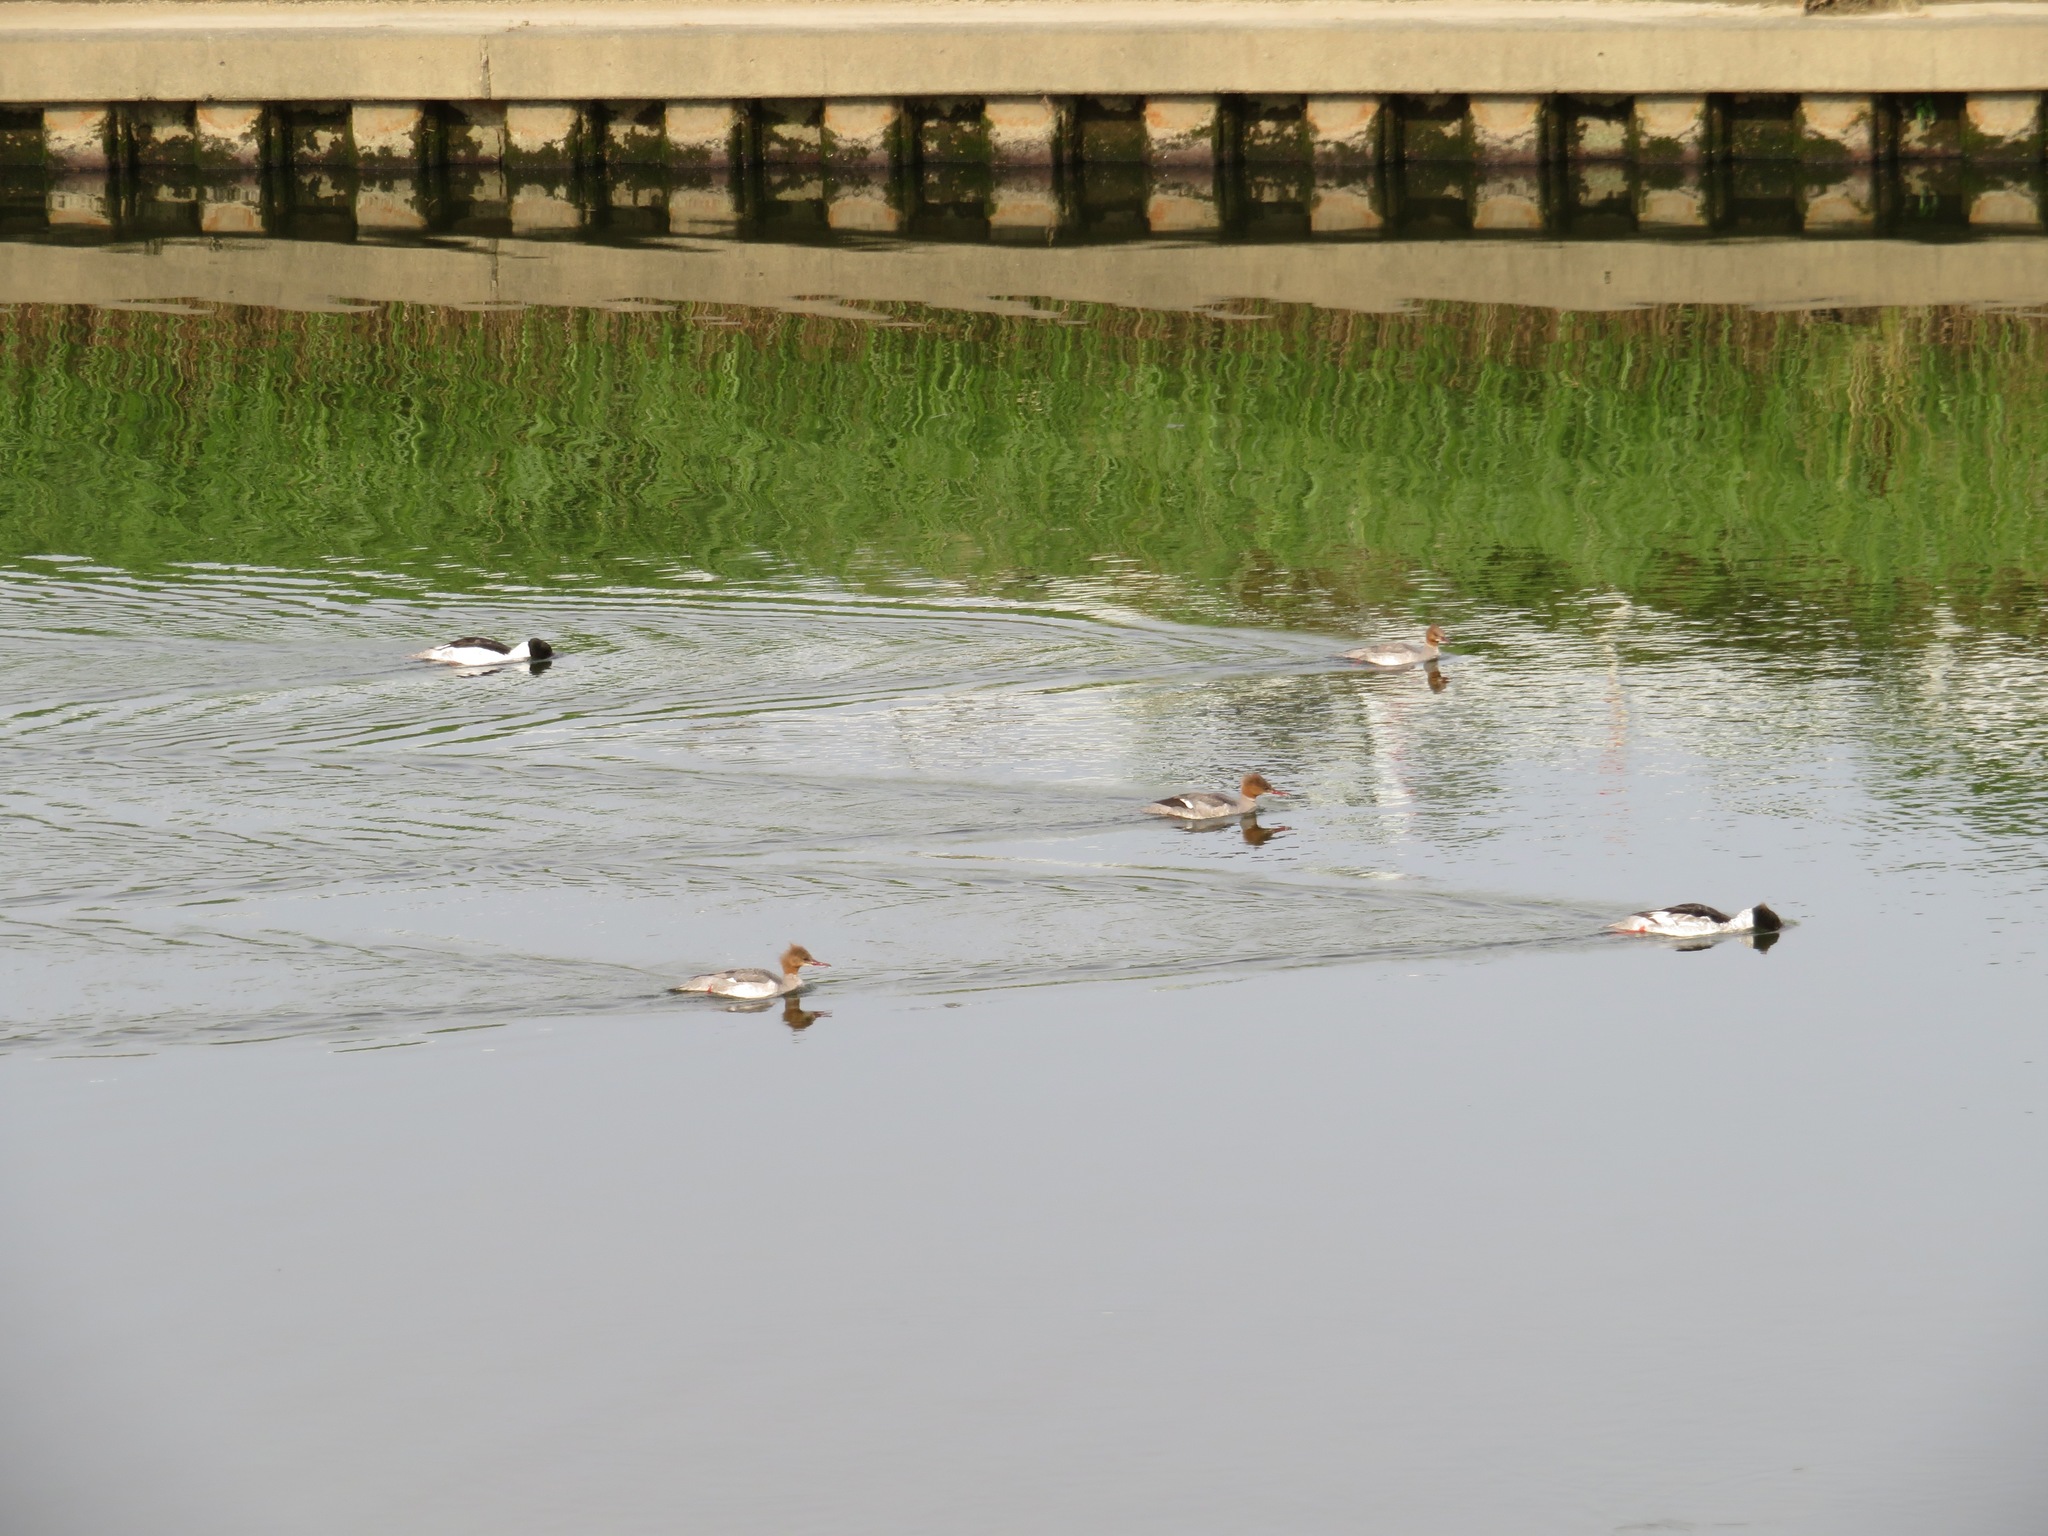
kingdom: Animalia
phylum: Chordata
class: Aves
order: Anseriformes
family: Anatidae
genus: Mergus
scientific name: Mergus merganser
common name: Common merganser
